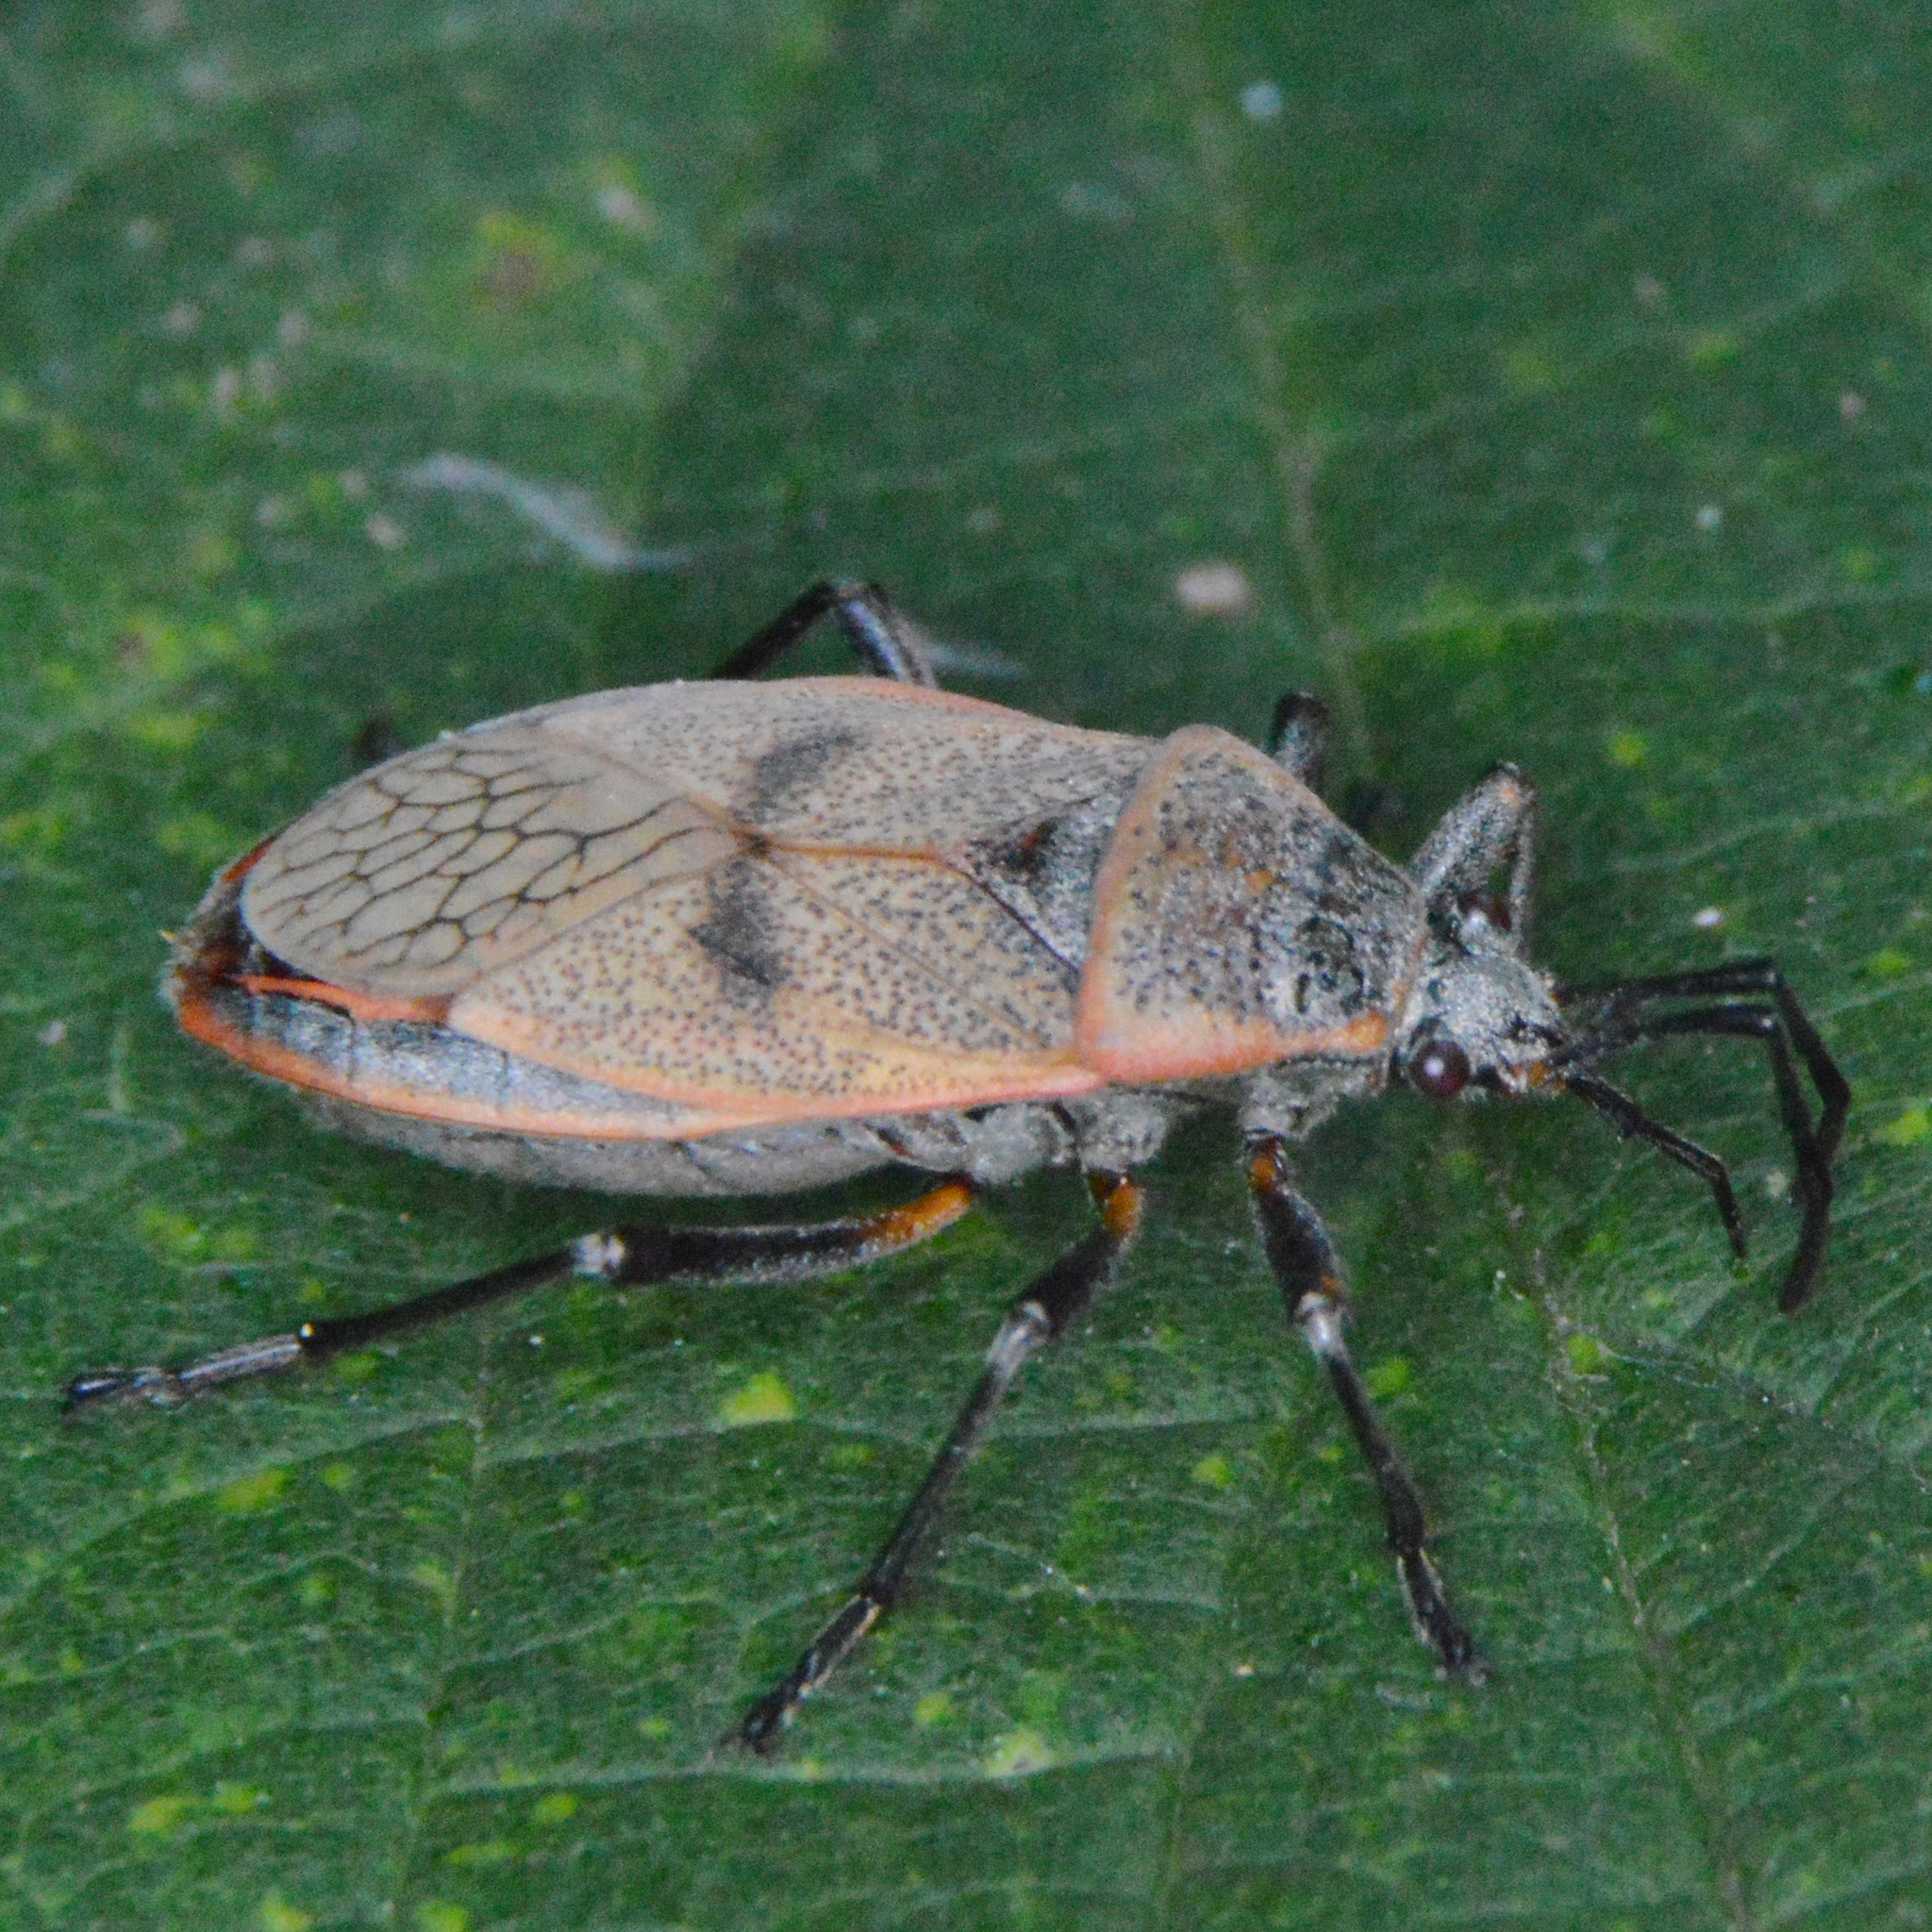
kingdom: Animalia
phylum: Arthropoda
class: Insecta
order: Hemiptera
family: Largidae
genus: Largus
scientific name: Largus maculatus
